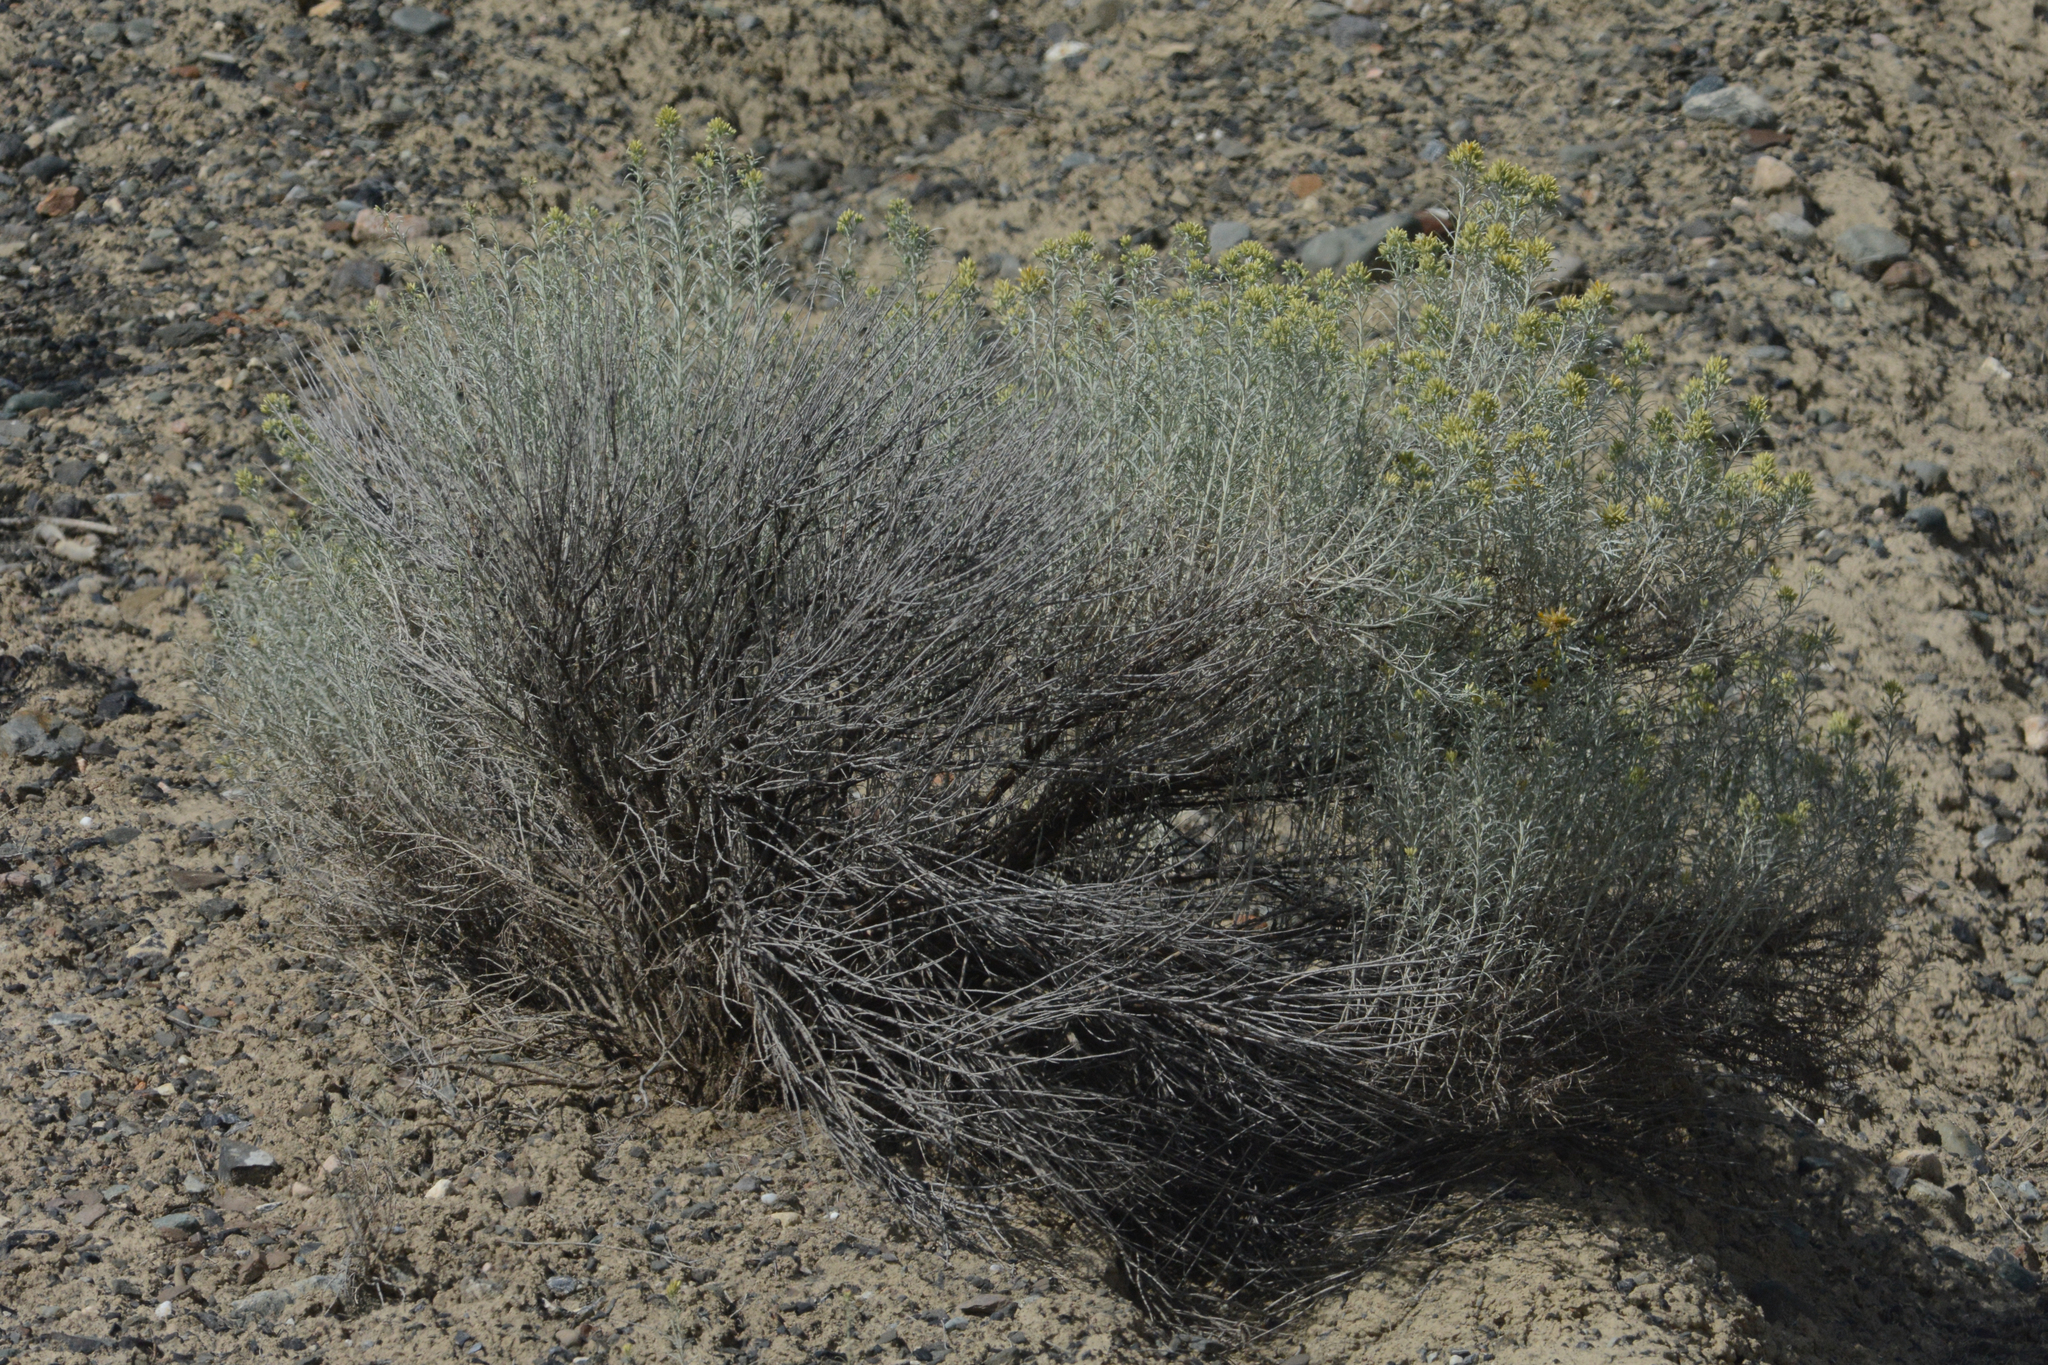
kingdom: Plantae
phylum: Tracheophyta
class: Magnoliopsida
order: Asterales
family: Asteraceae
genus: Ericameria
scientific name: Ericameria nauseosa
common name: Rubber rabbitbrush
